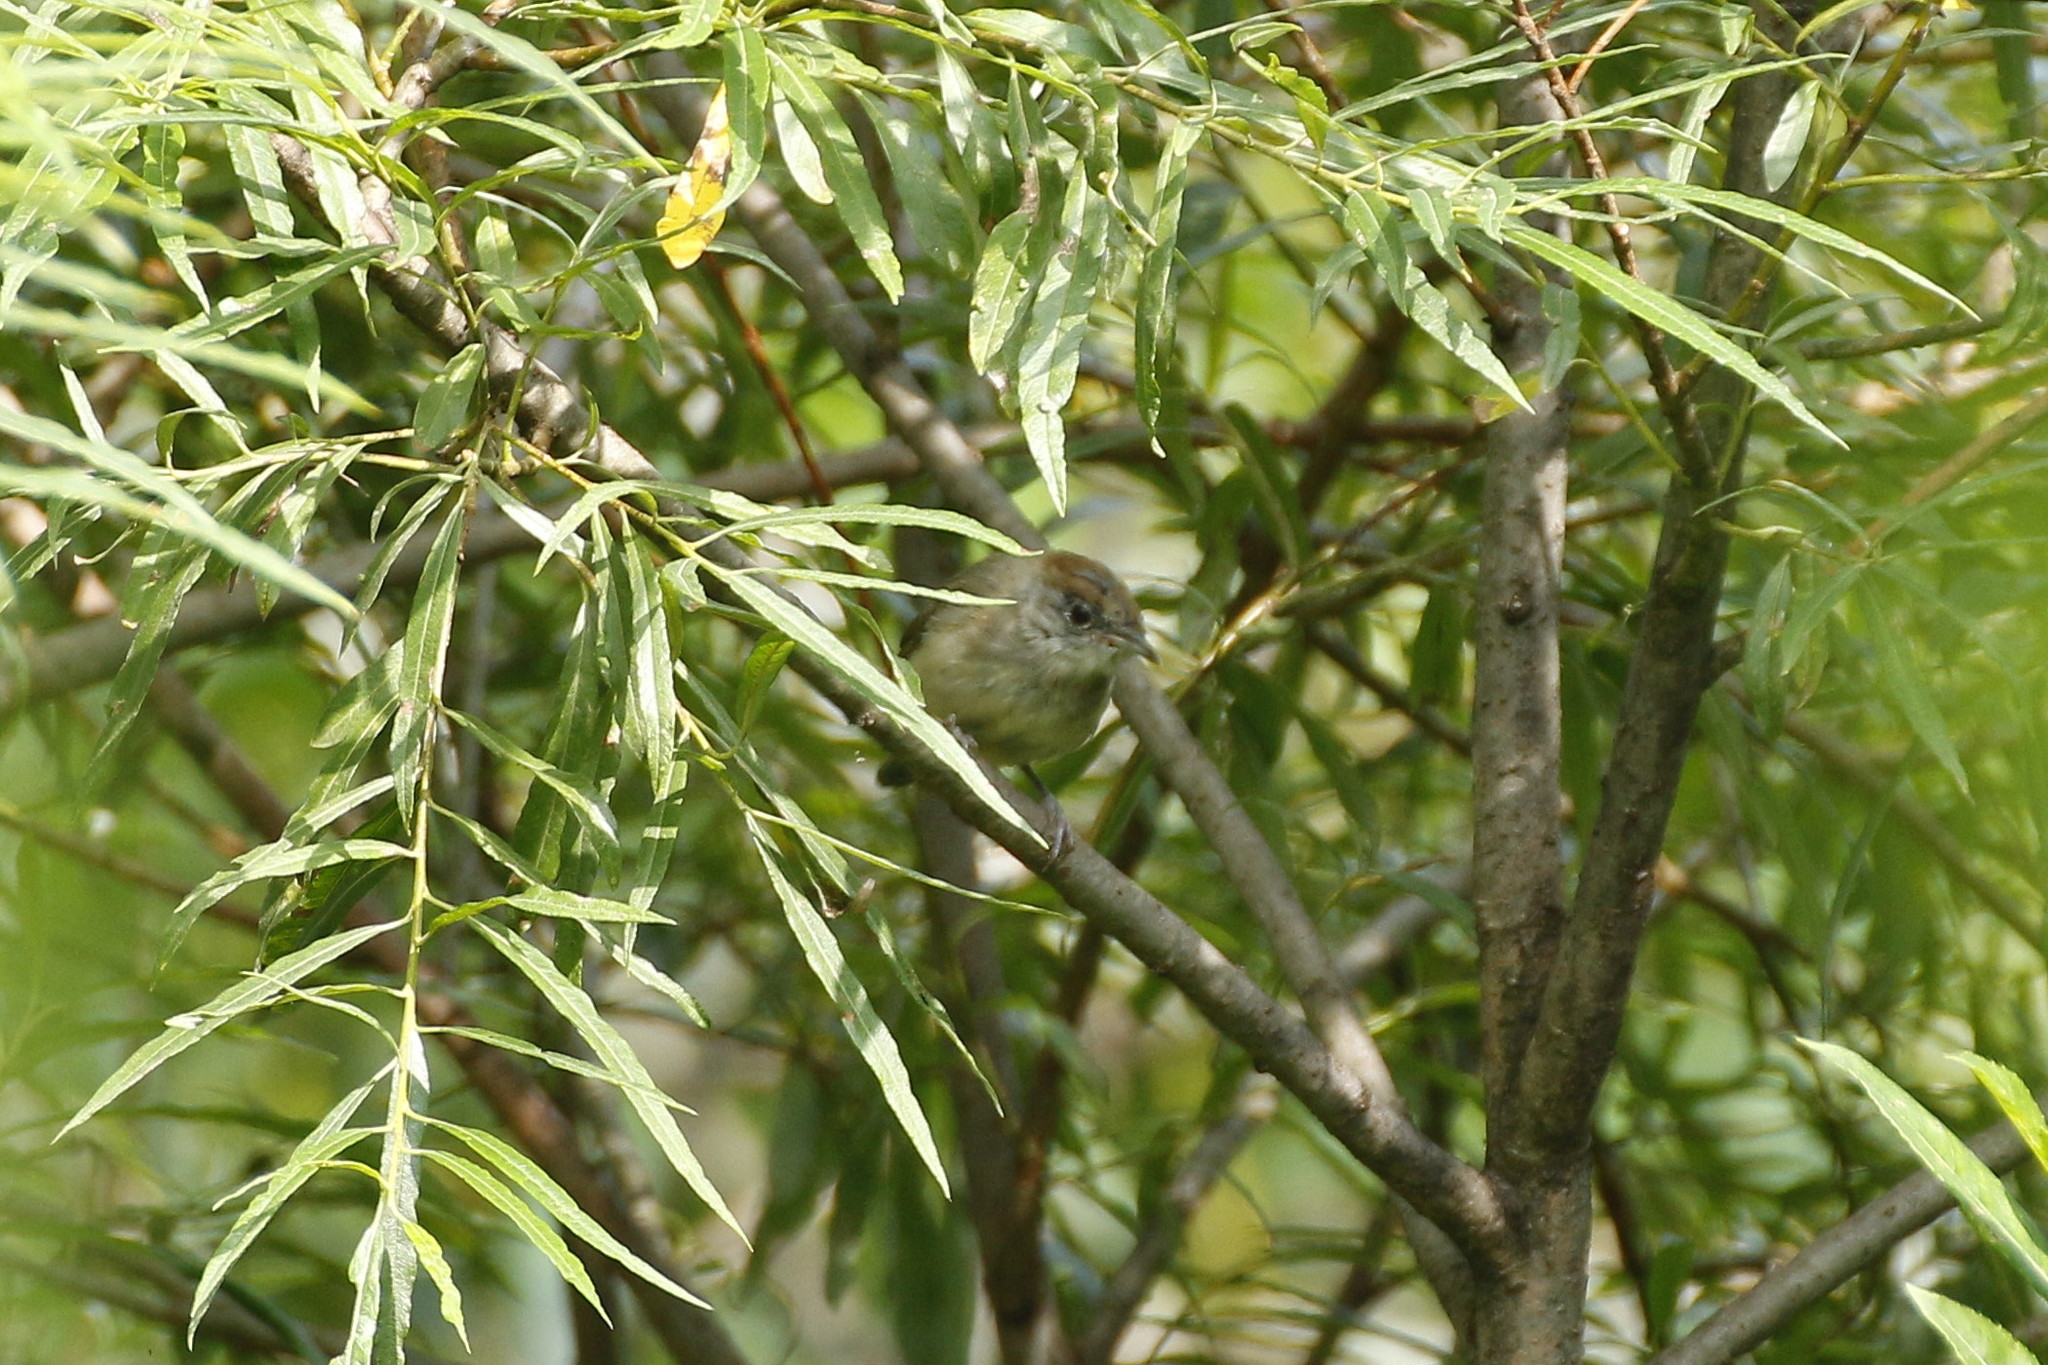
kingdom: Animalia
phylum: Chordata
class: Aves
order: Passeriformes
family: Sylviidae
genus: Sylvia
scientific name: Sylvia atricapilla
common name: Eurasian blackcap
